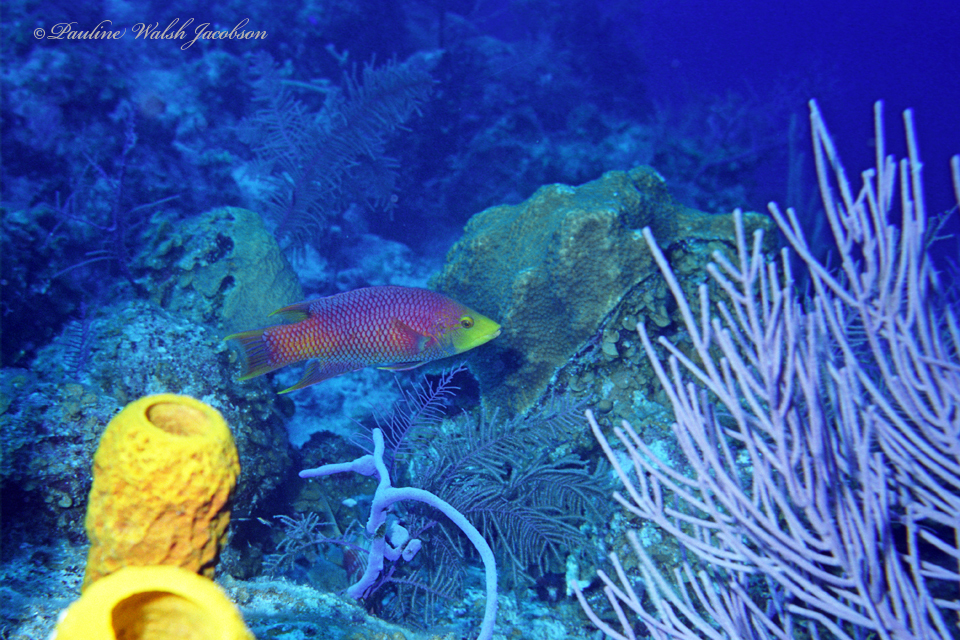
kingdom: Animalia
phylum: Chordata
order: Perciformes
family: Labridae
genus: Bodianus
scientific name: Bodianus rufus
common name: Spanish hogfish
